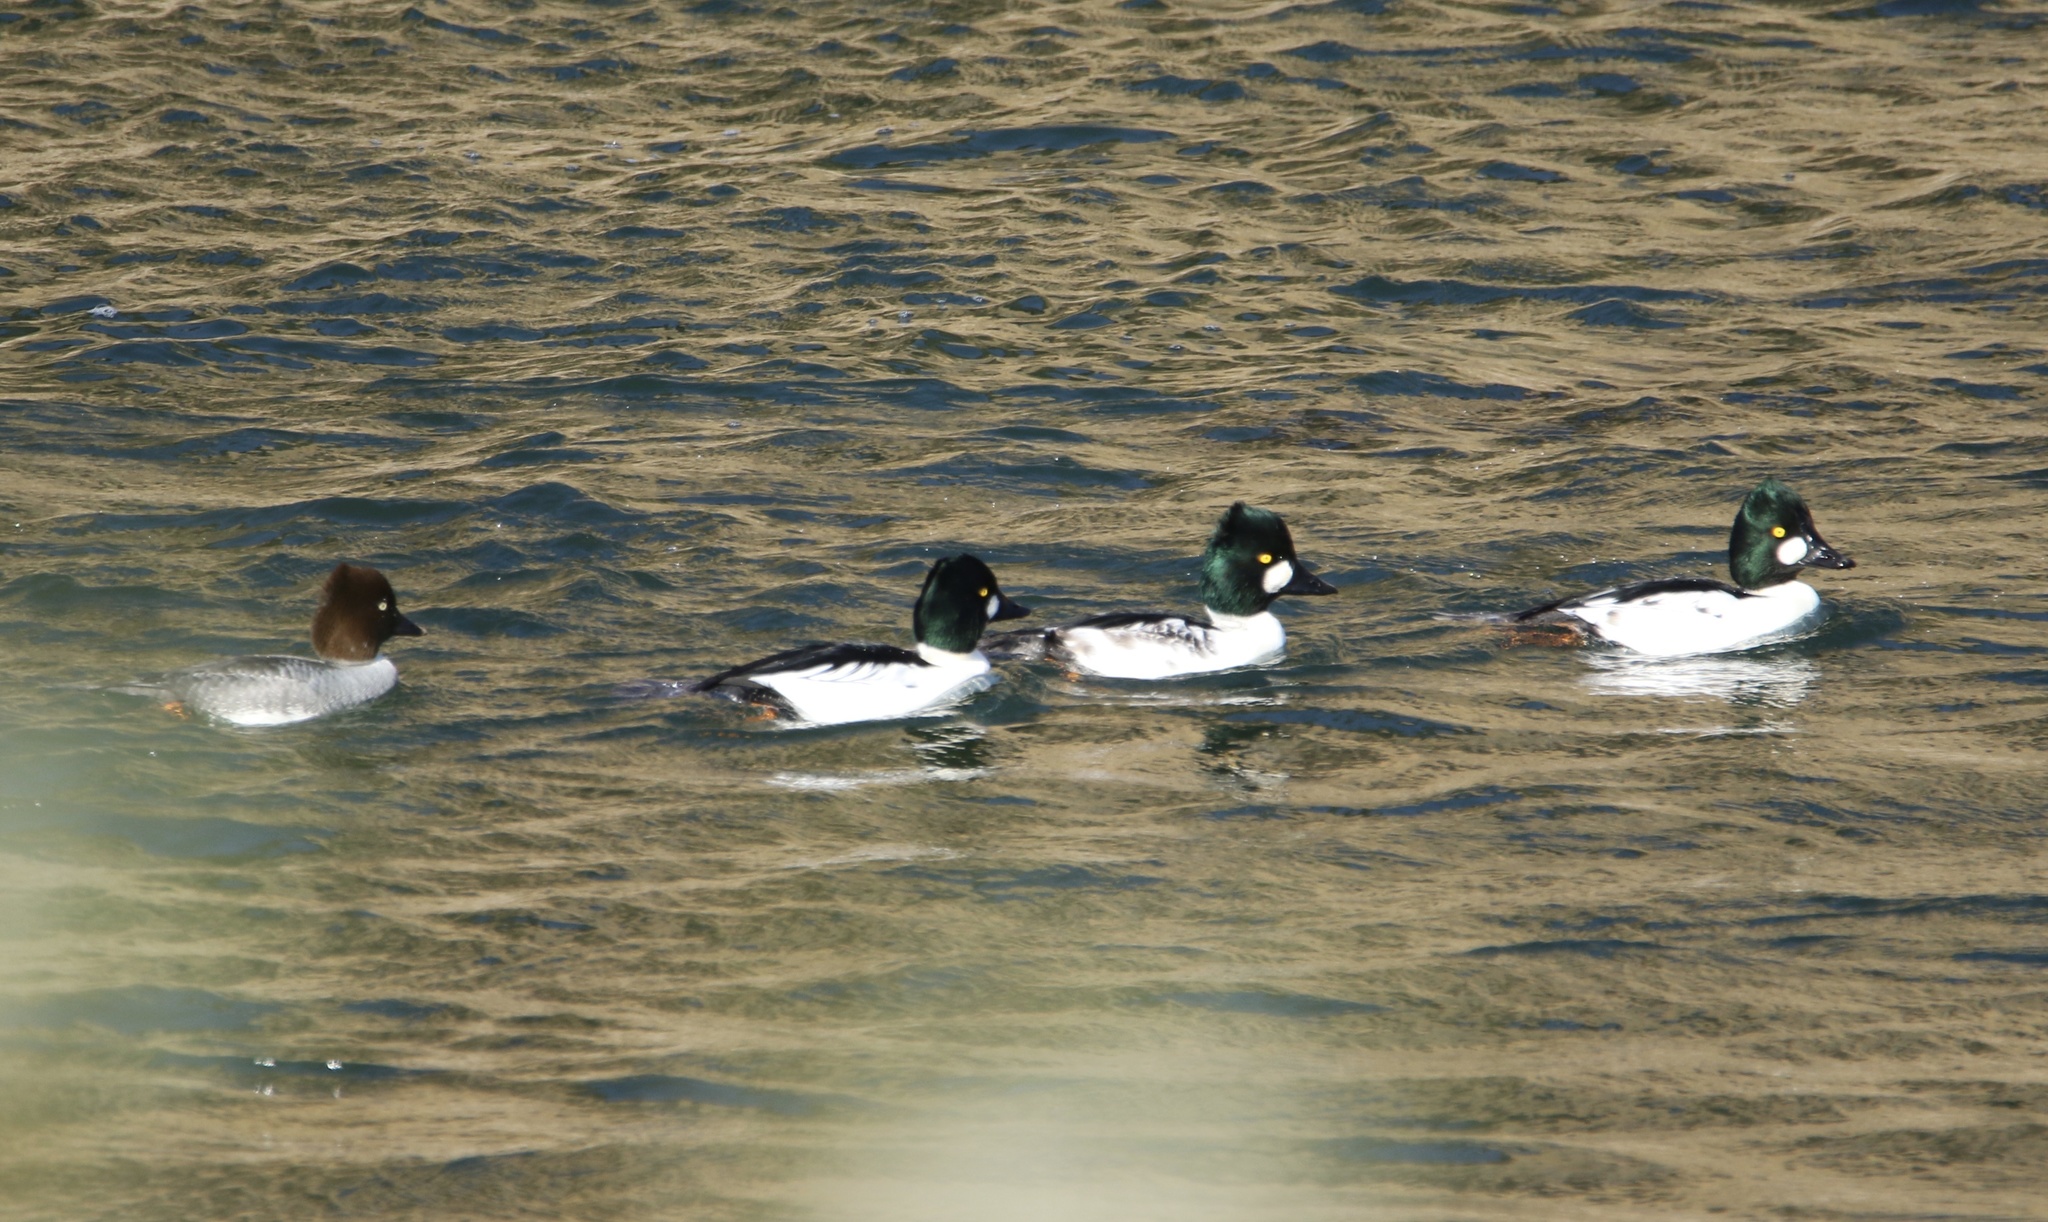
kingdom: Animalia
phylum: Chordata
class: Aves
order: Anseriformes
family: Anatidae
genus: Bucephala
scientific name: Bucephala clangula
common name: Common goldeneye
